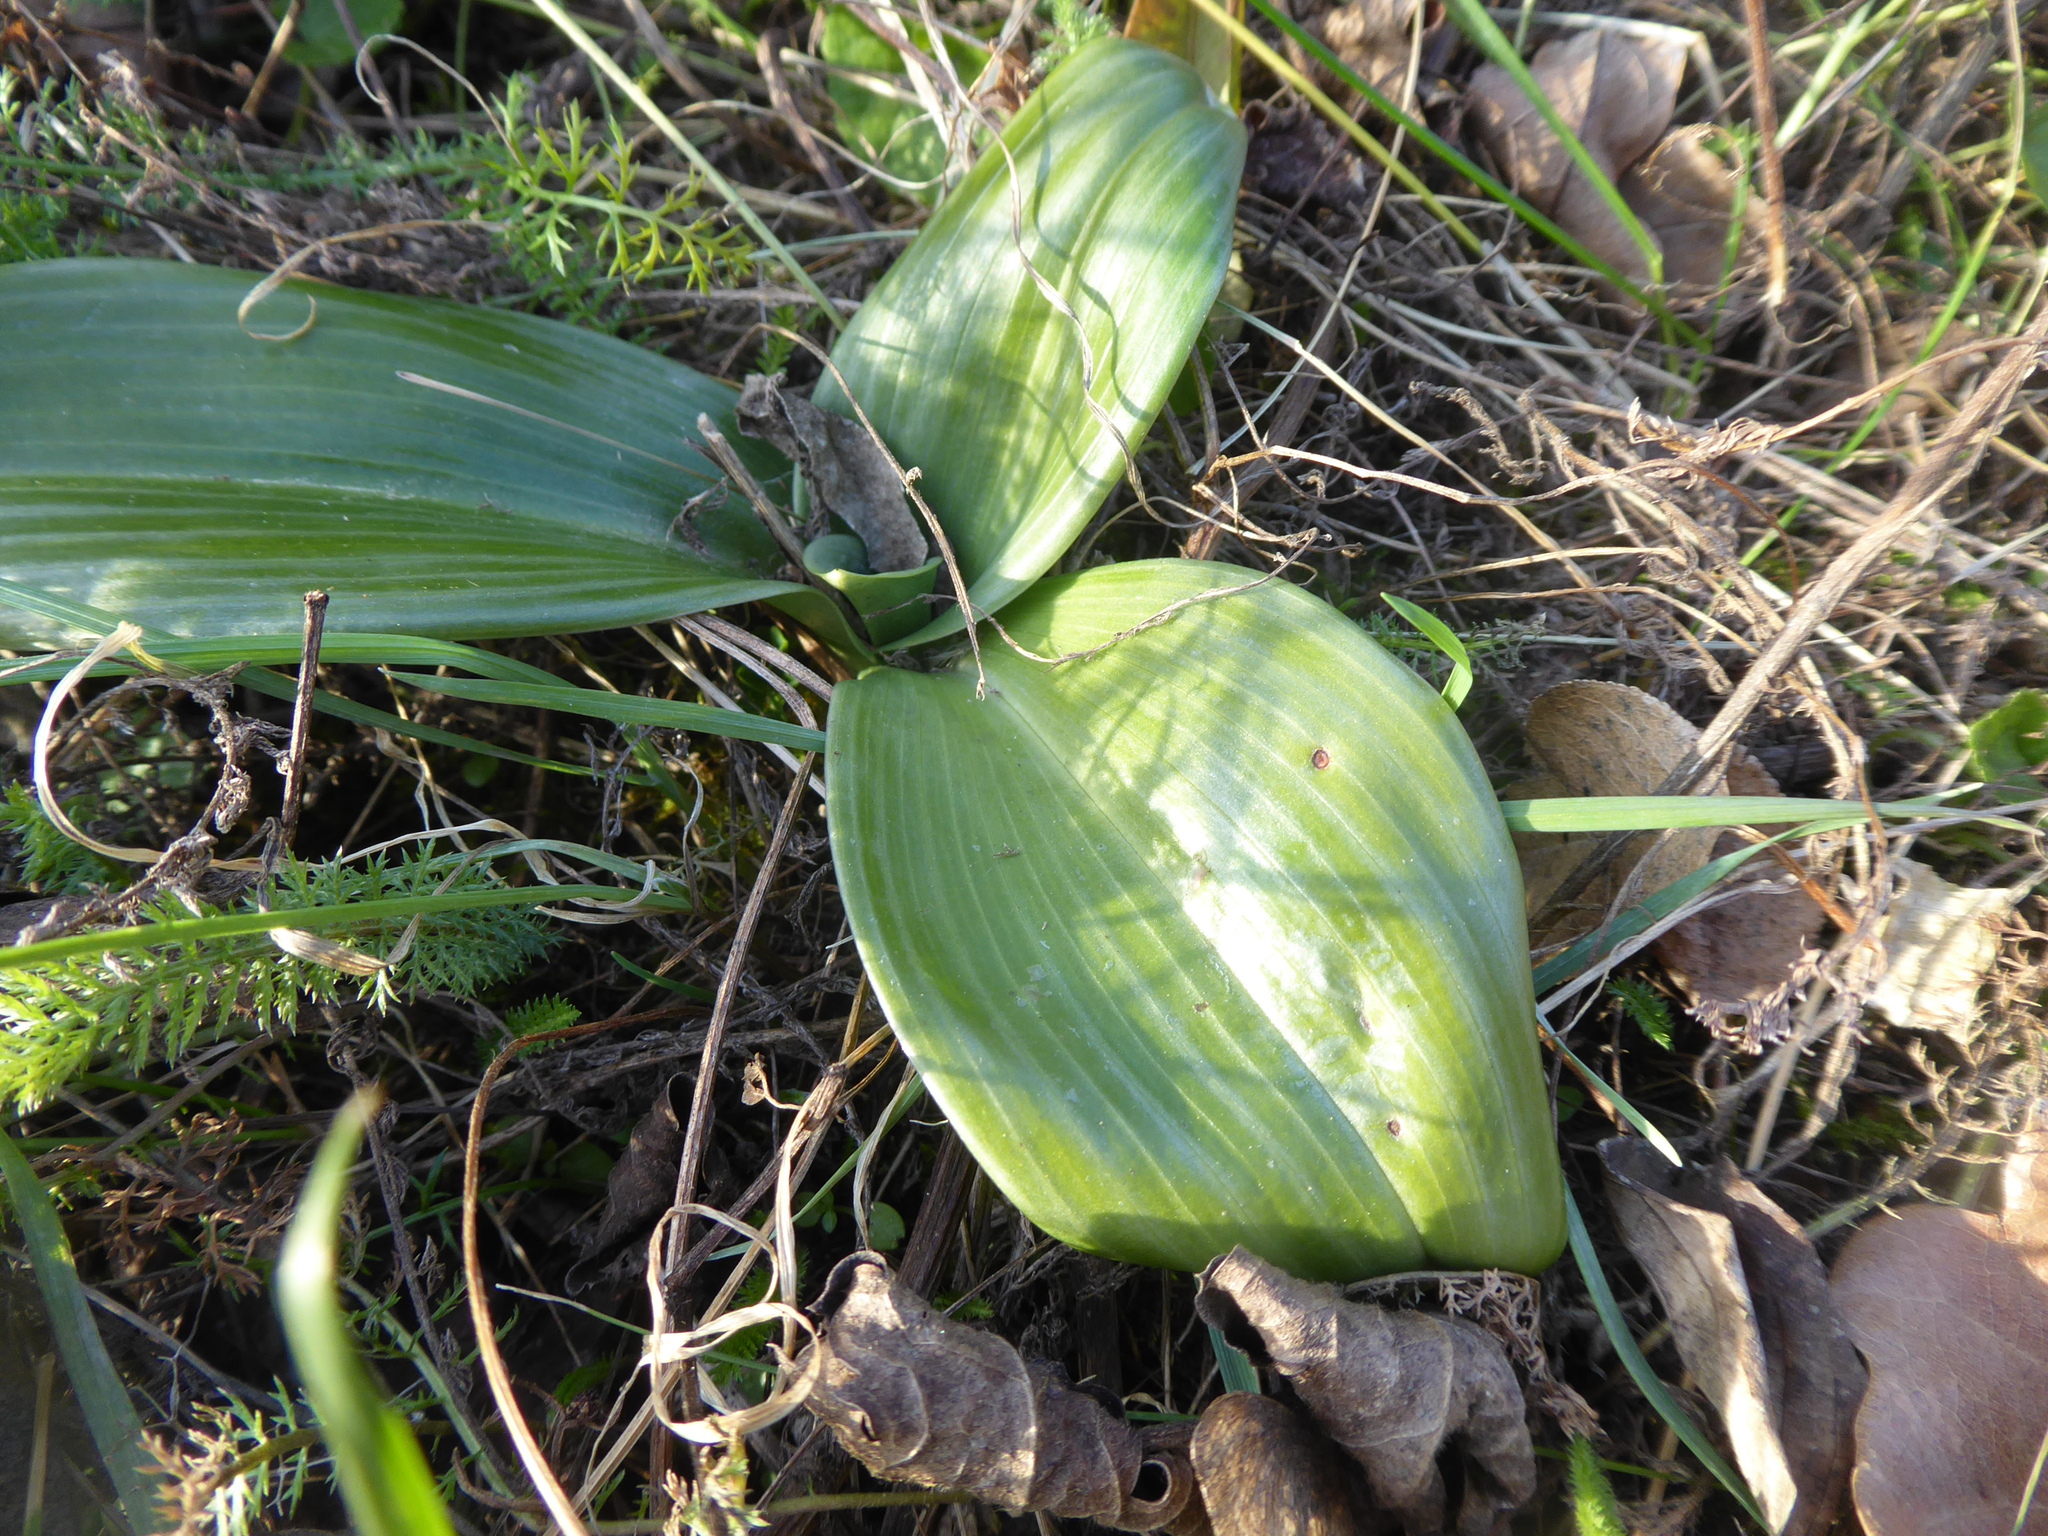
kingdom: Plantae
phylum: Tracheophyta
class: Liliopsida
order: Asparagales
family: Orchidaceae
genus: Himantoglossum
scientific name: Himantoglossum adriaticum
